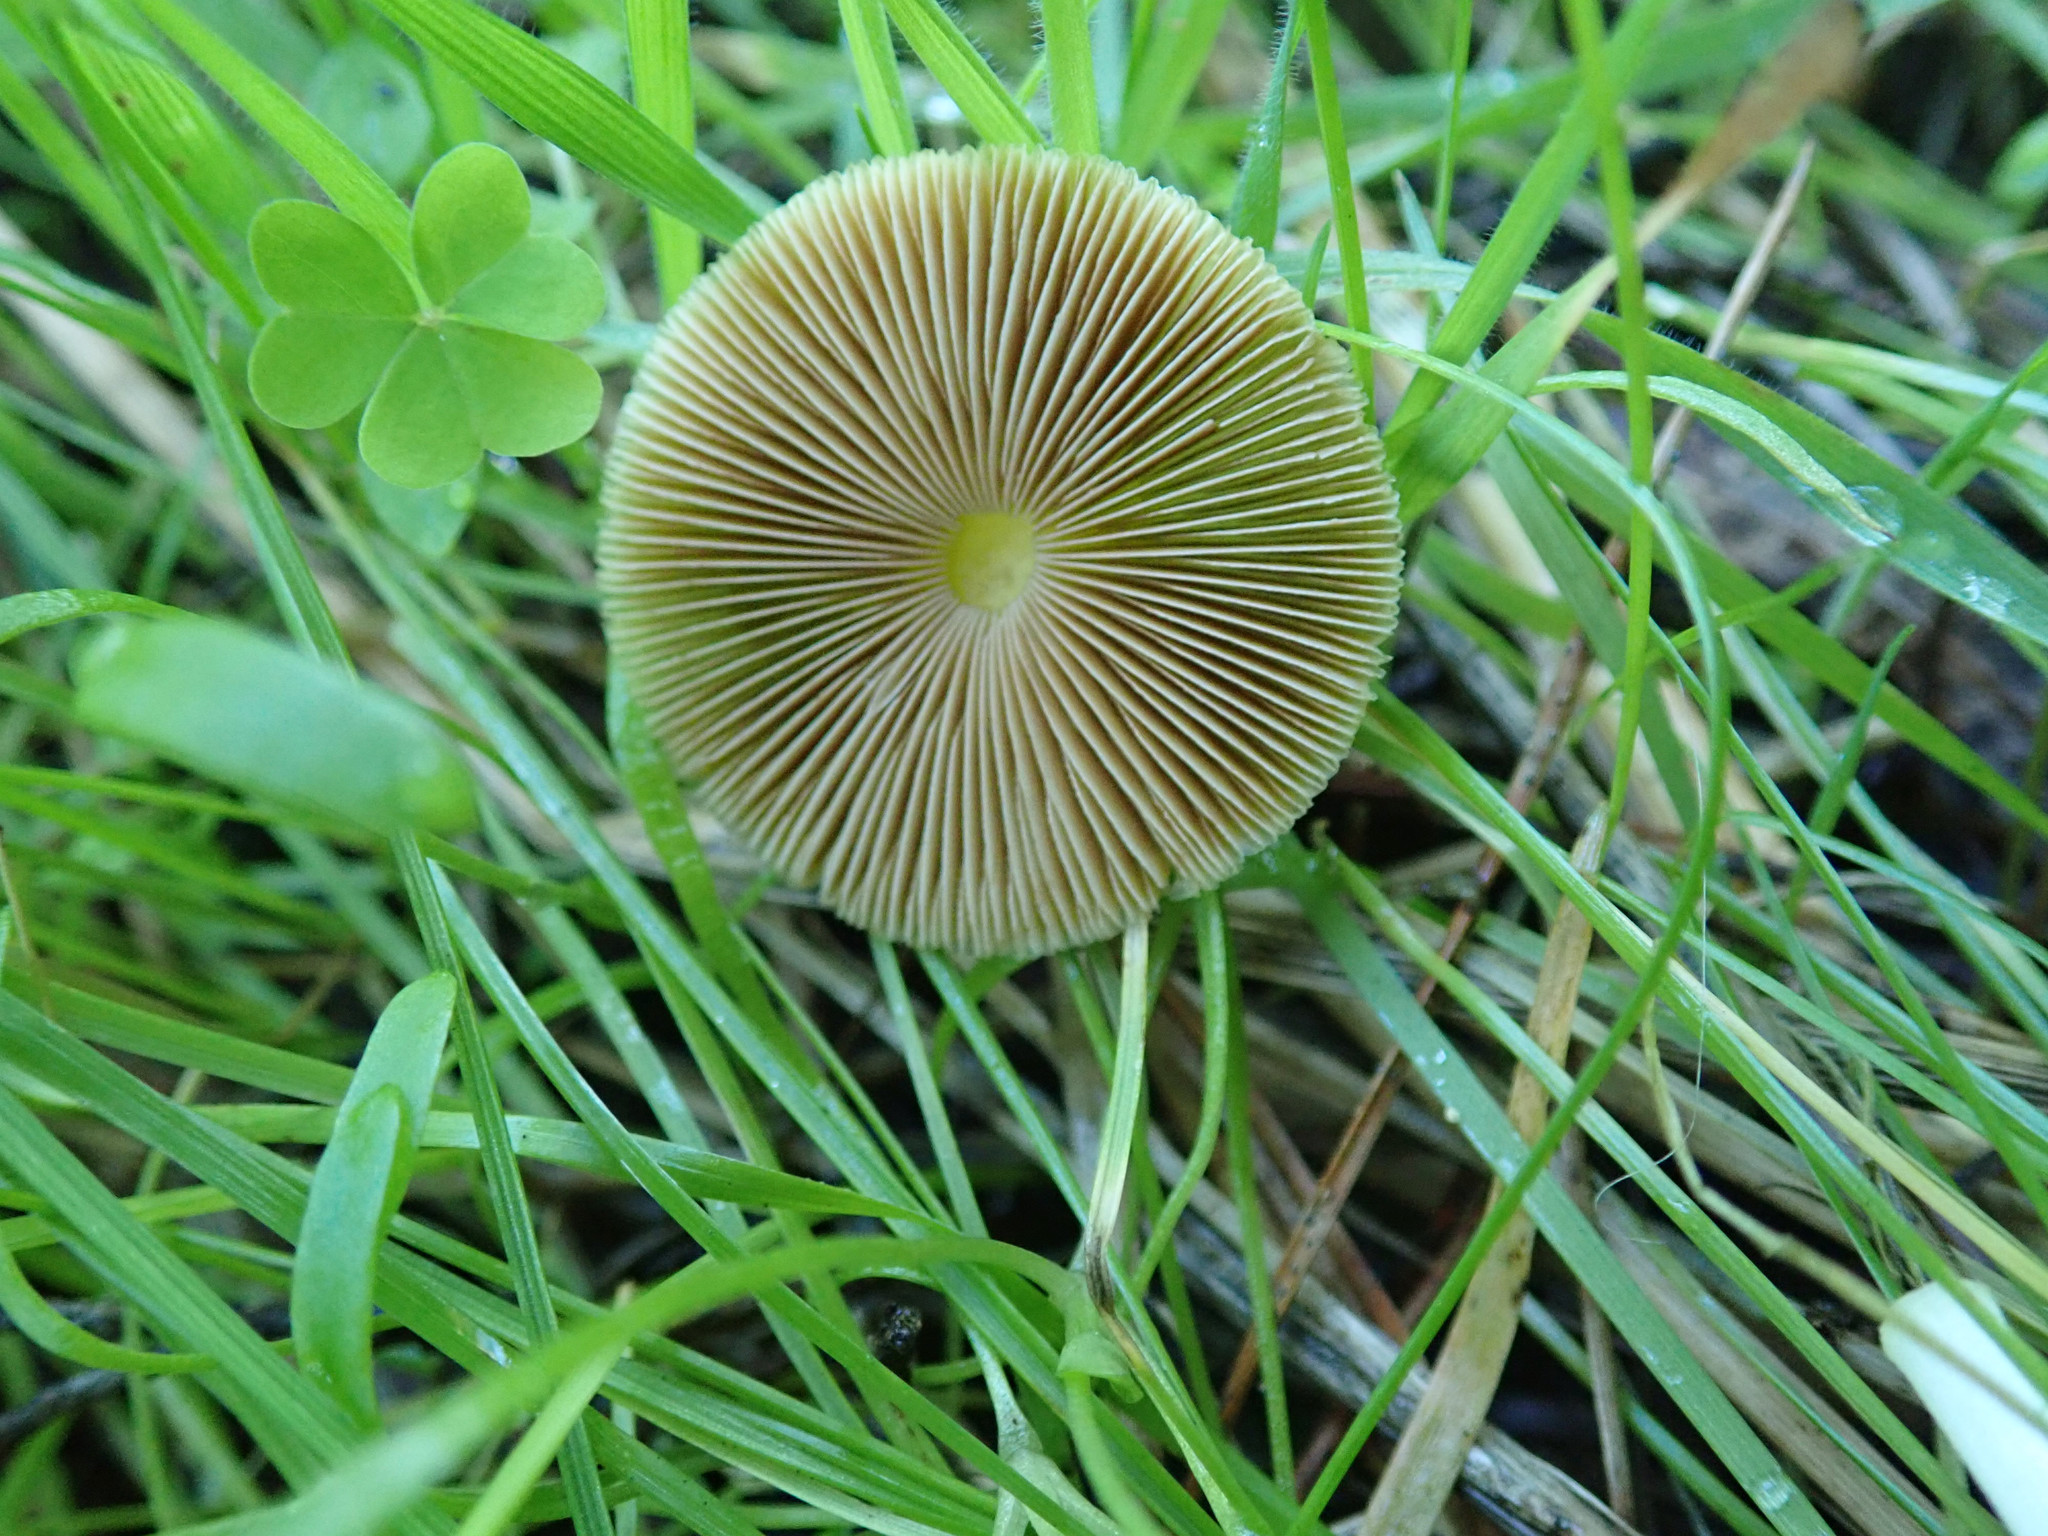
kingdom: Fungi
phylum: Basidiomycota
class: Agaricomycetes
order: Agaricales
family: Bolbitiaceae
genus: Bolbitius
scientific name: Bolbitius titubans
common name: Yellow fieldcap
